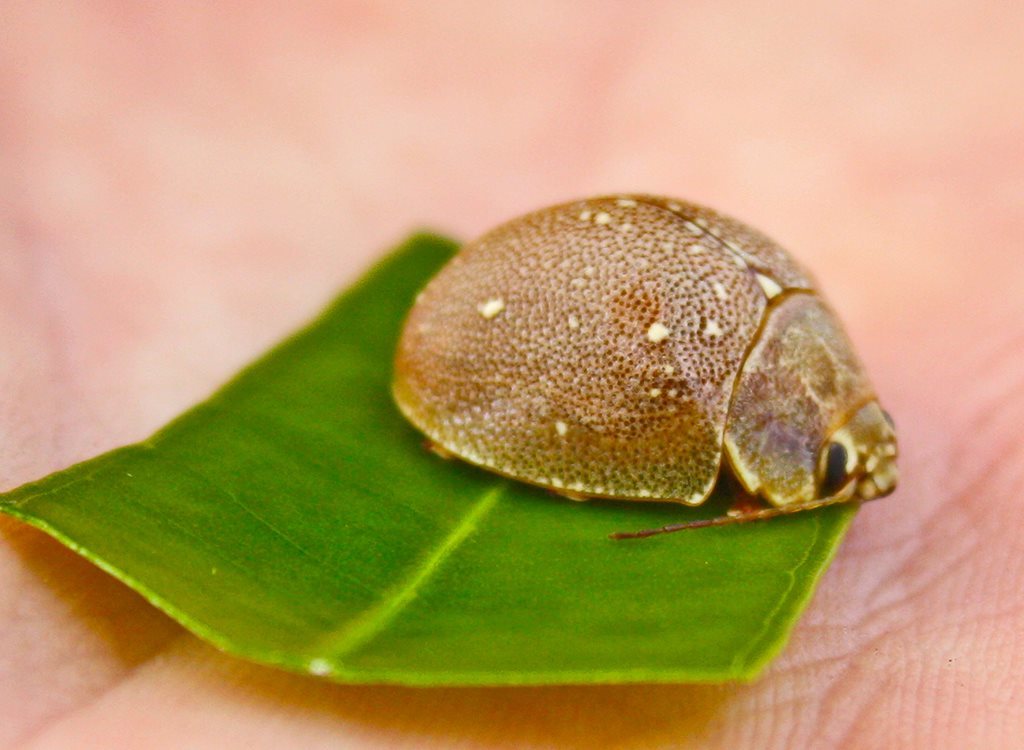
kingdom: Animalia
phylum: Arthropoda
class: Insecta
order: Coleoptera
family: Chrysomelidae
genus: Paropsis
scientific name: Paropsis
